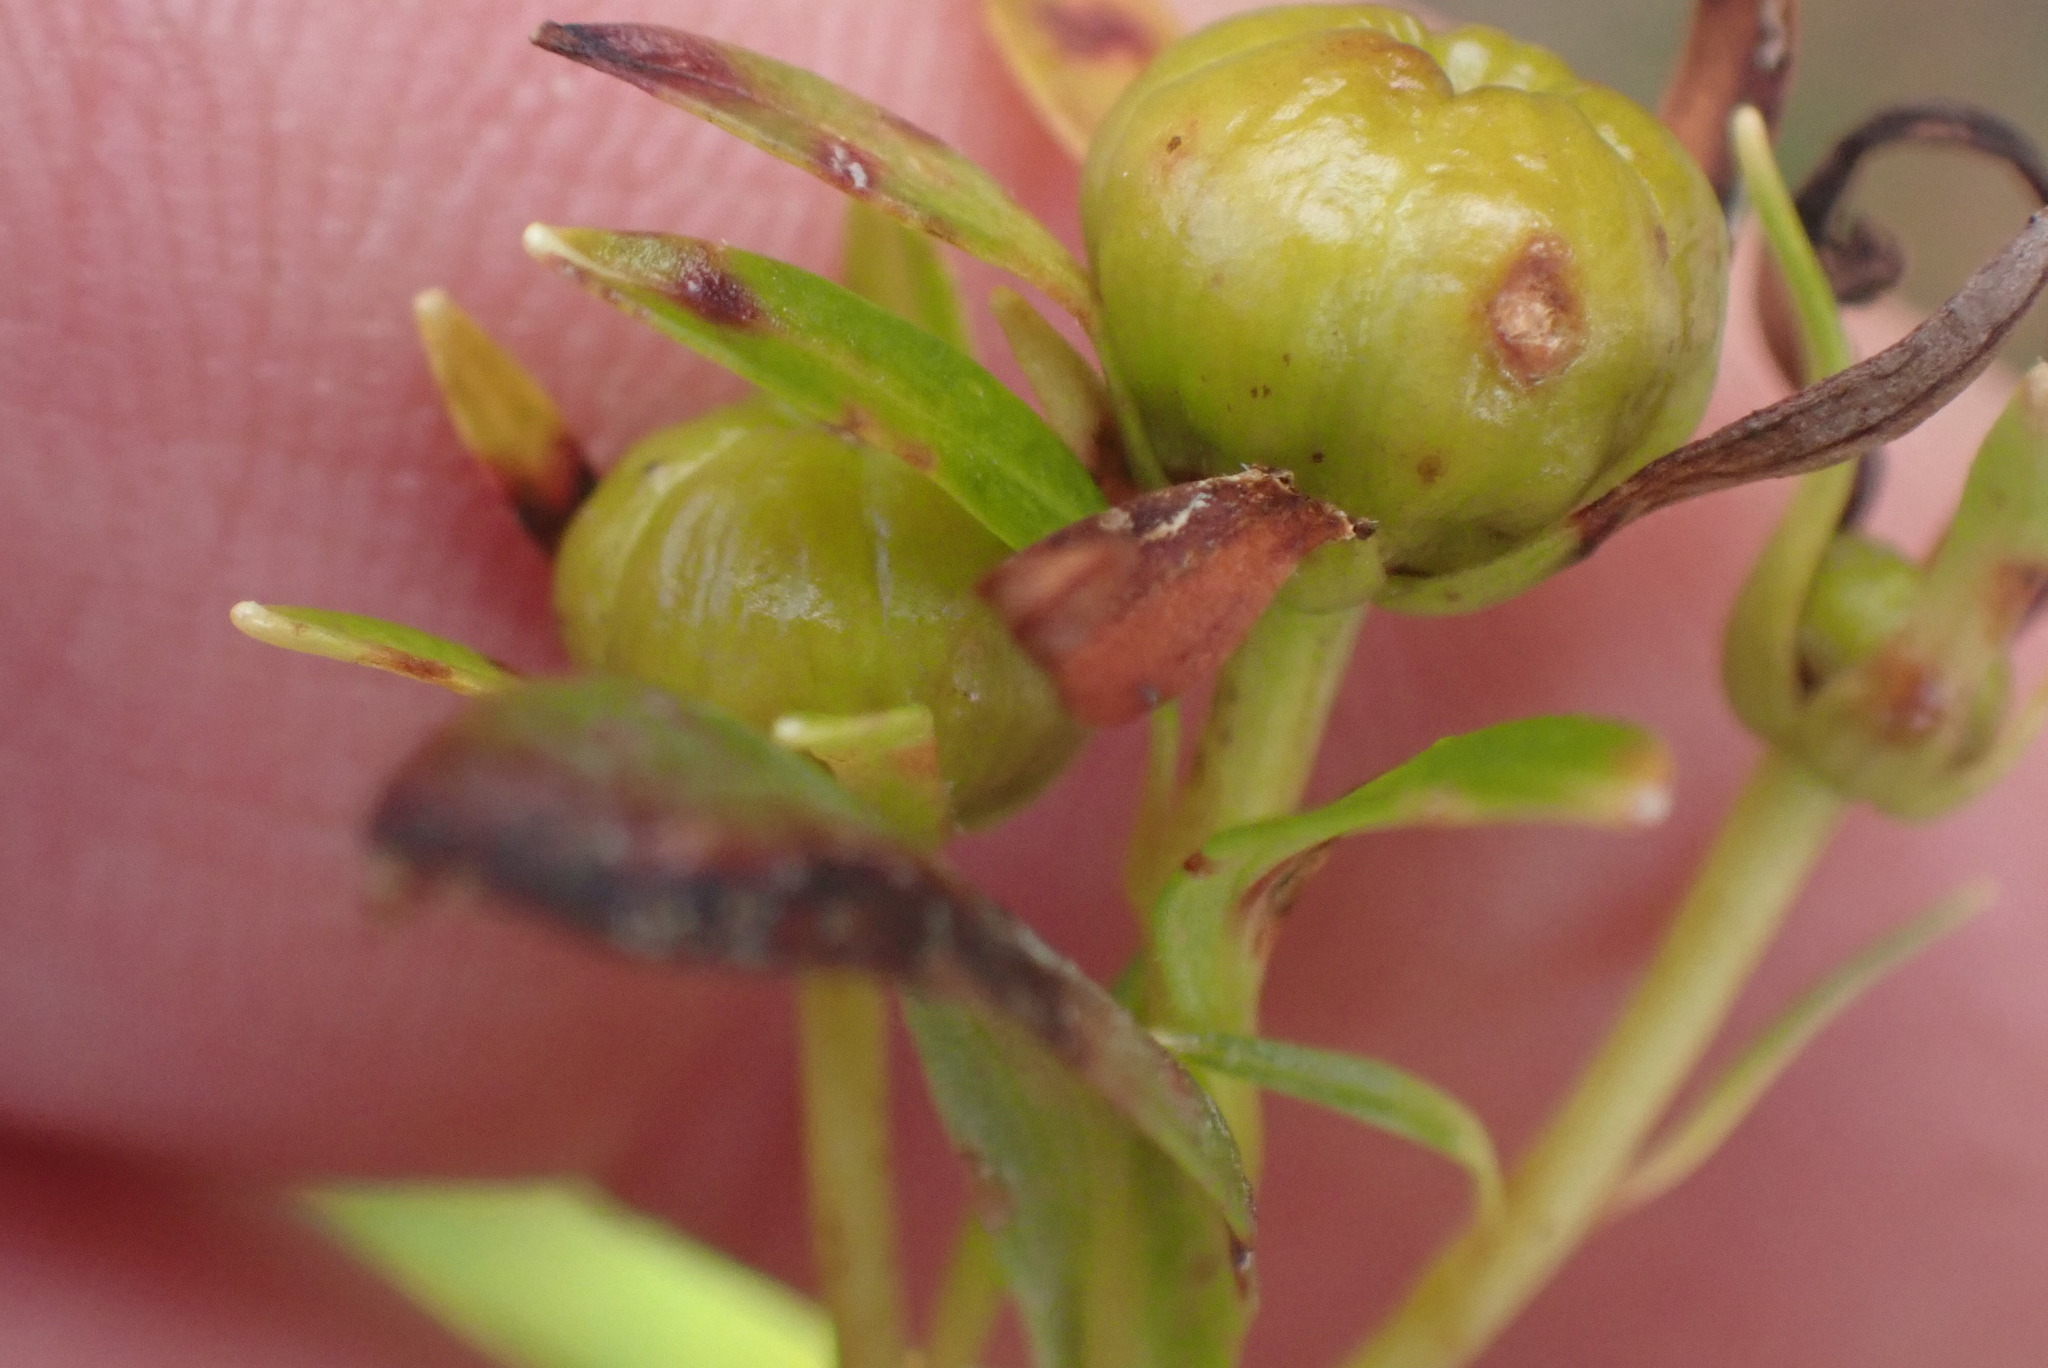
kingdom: Plantae
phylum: Tracheophyta
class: Magnoliopsida
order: Ericales
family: Ericaceae
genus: Elliottia
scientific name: Elliottia pyroliflora
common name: Copperbush
